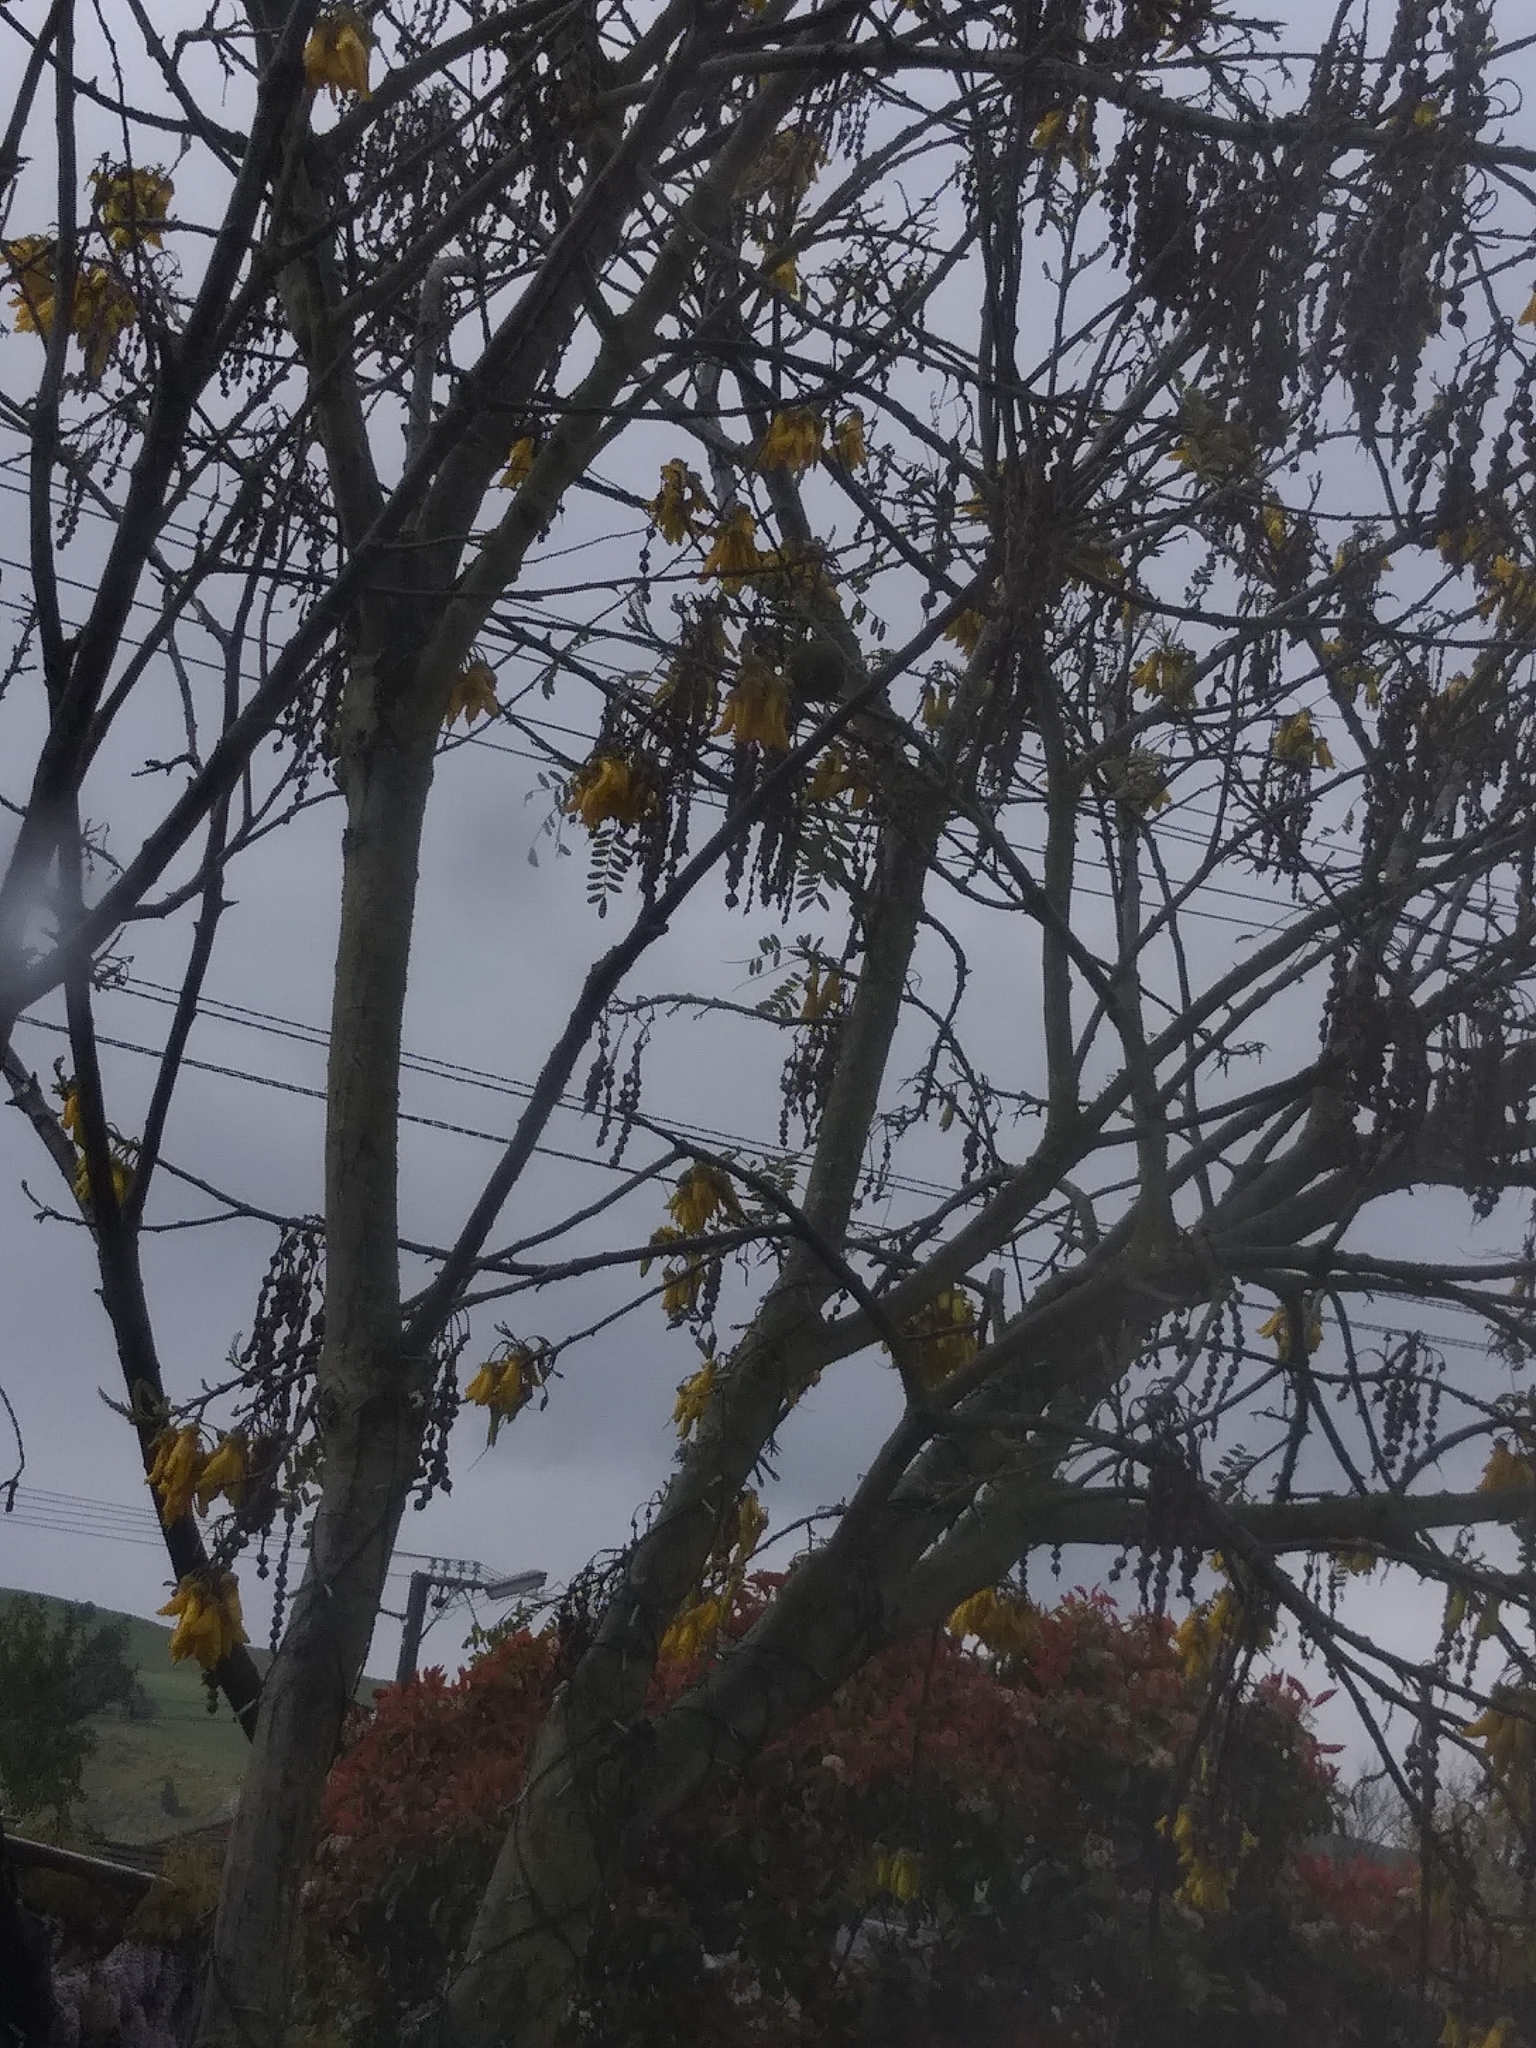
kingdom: Animalia
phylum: Chordata
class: Aves
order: Passeriformes
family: Meliphagidae
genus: Anthornis
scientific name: Anthornis melanura
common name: New zealand bellbird
